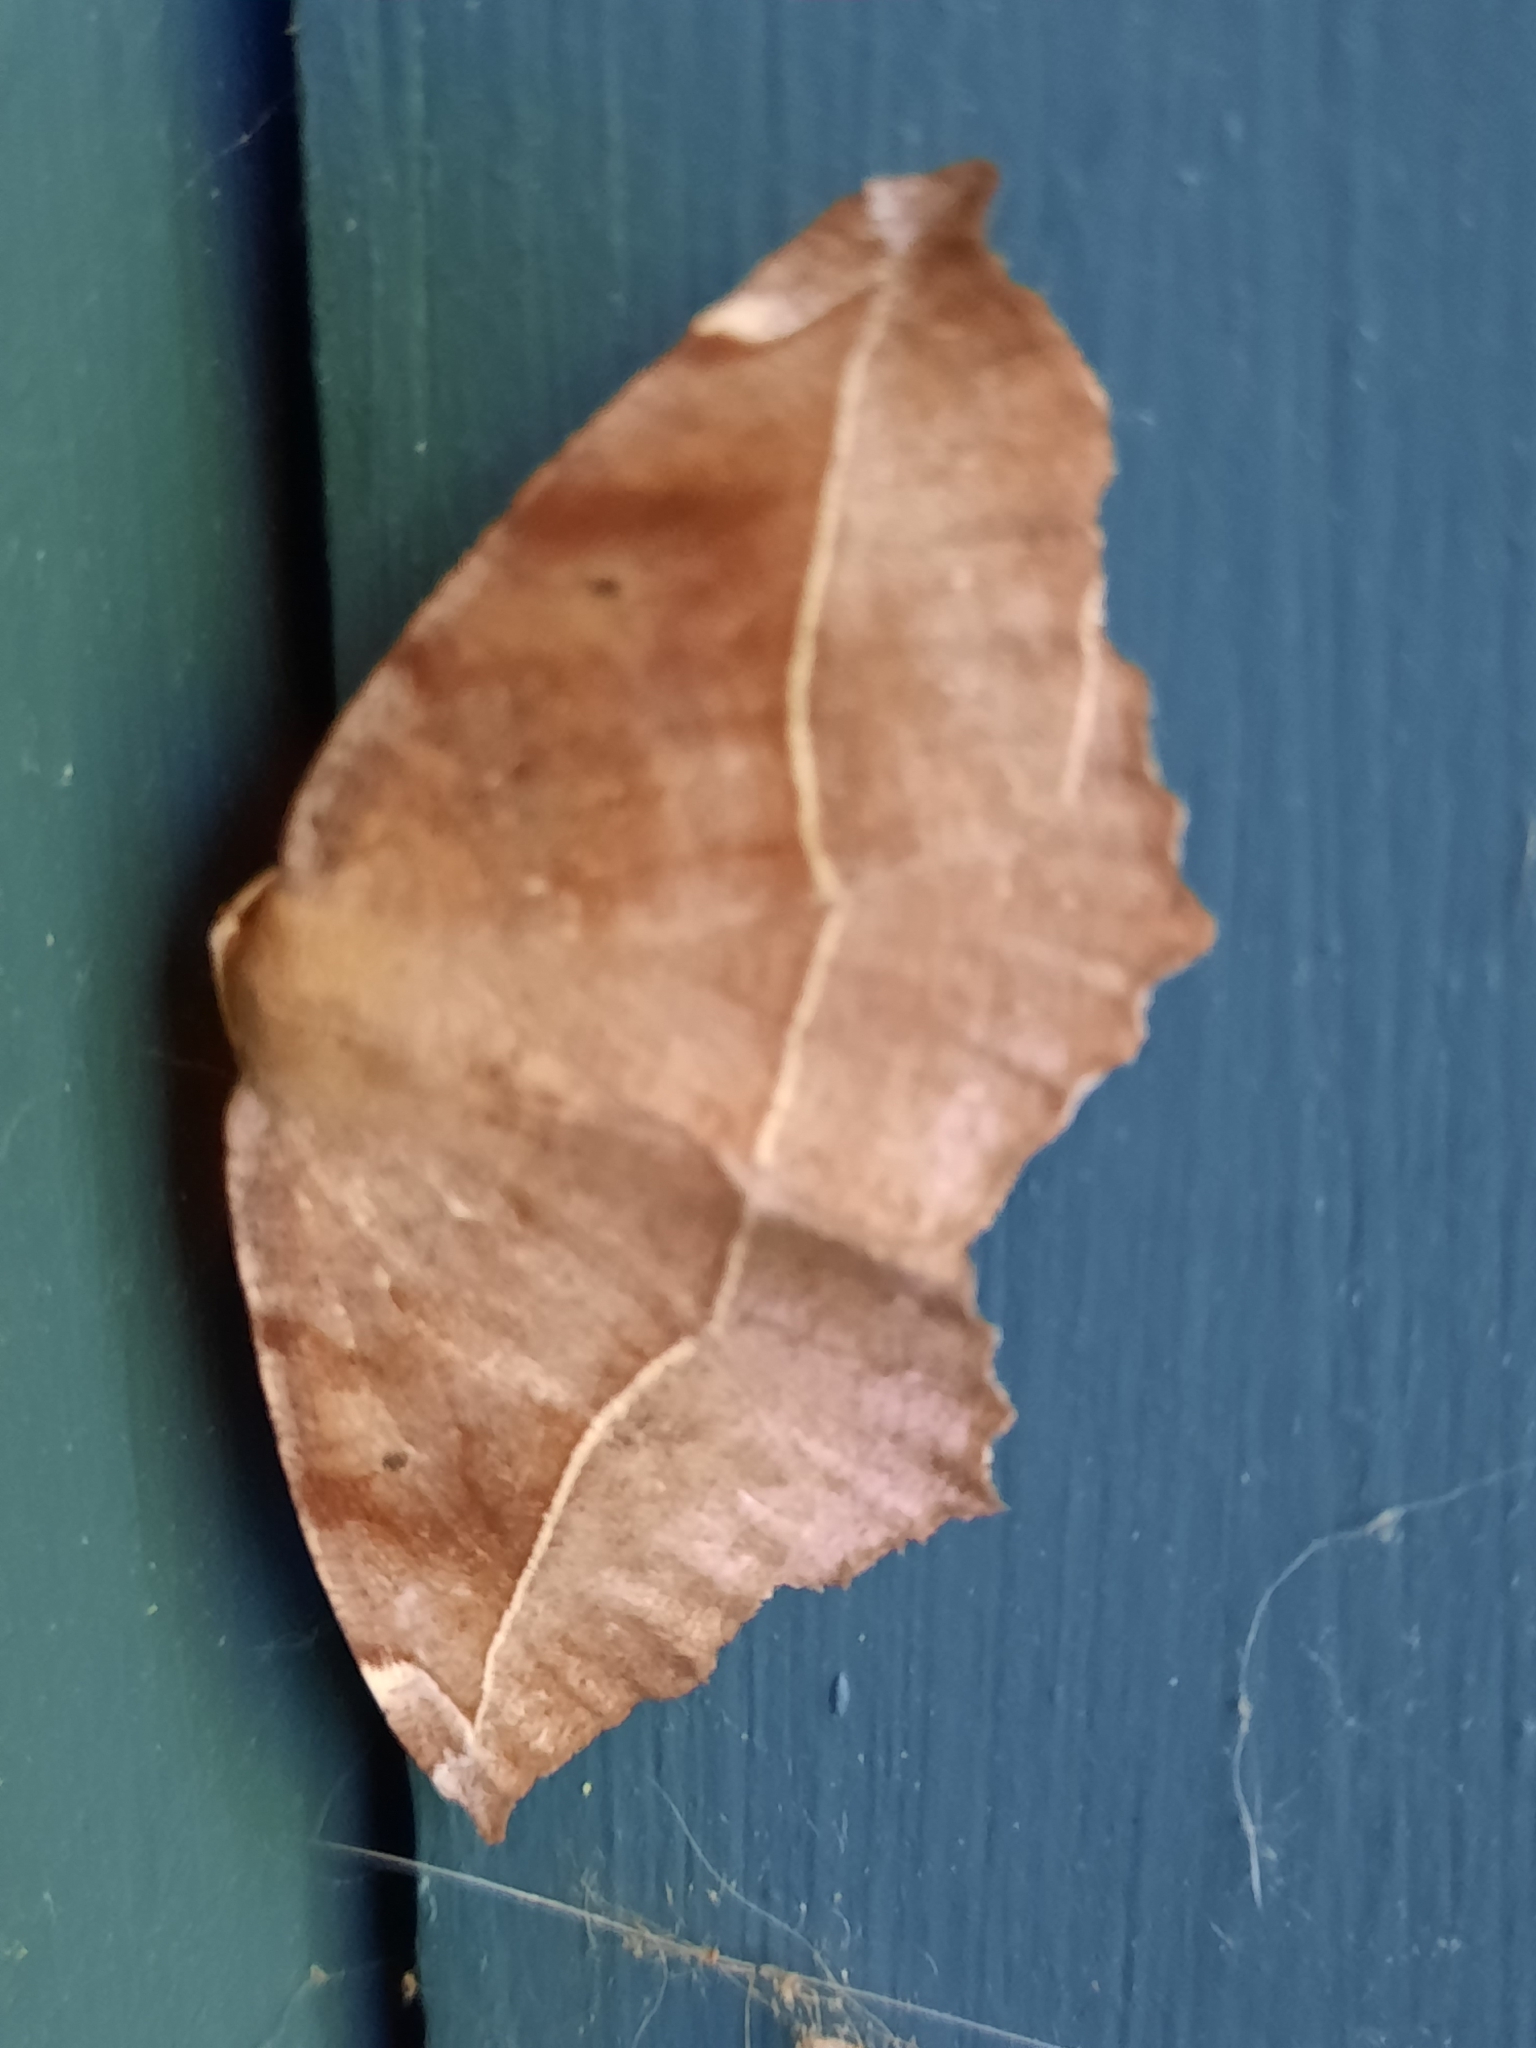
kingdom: Animalia
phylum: Arthropoda
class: Insecta
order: Lepidoptera
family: Geometridae
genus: Eutrapela
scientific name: Eutrapela clemataria
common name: Curved-toothed geometer
